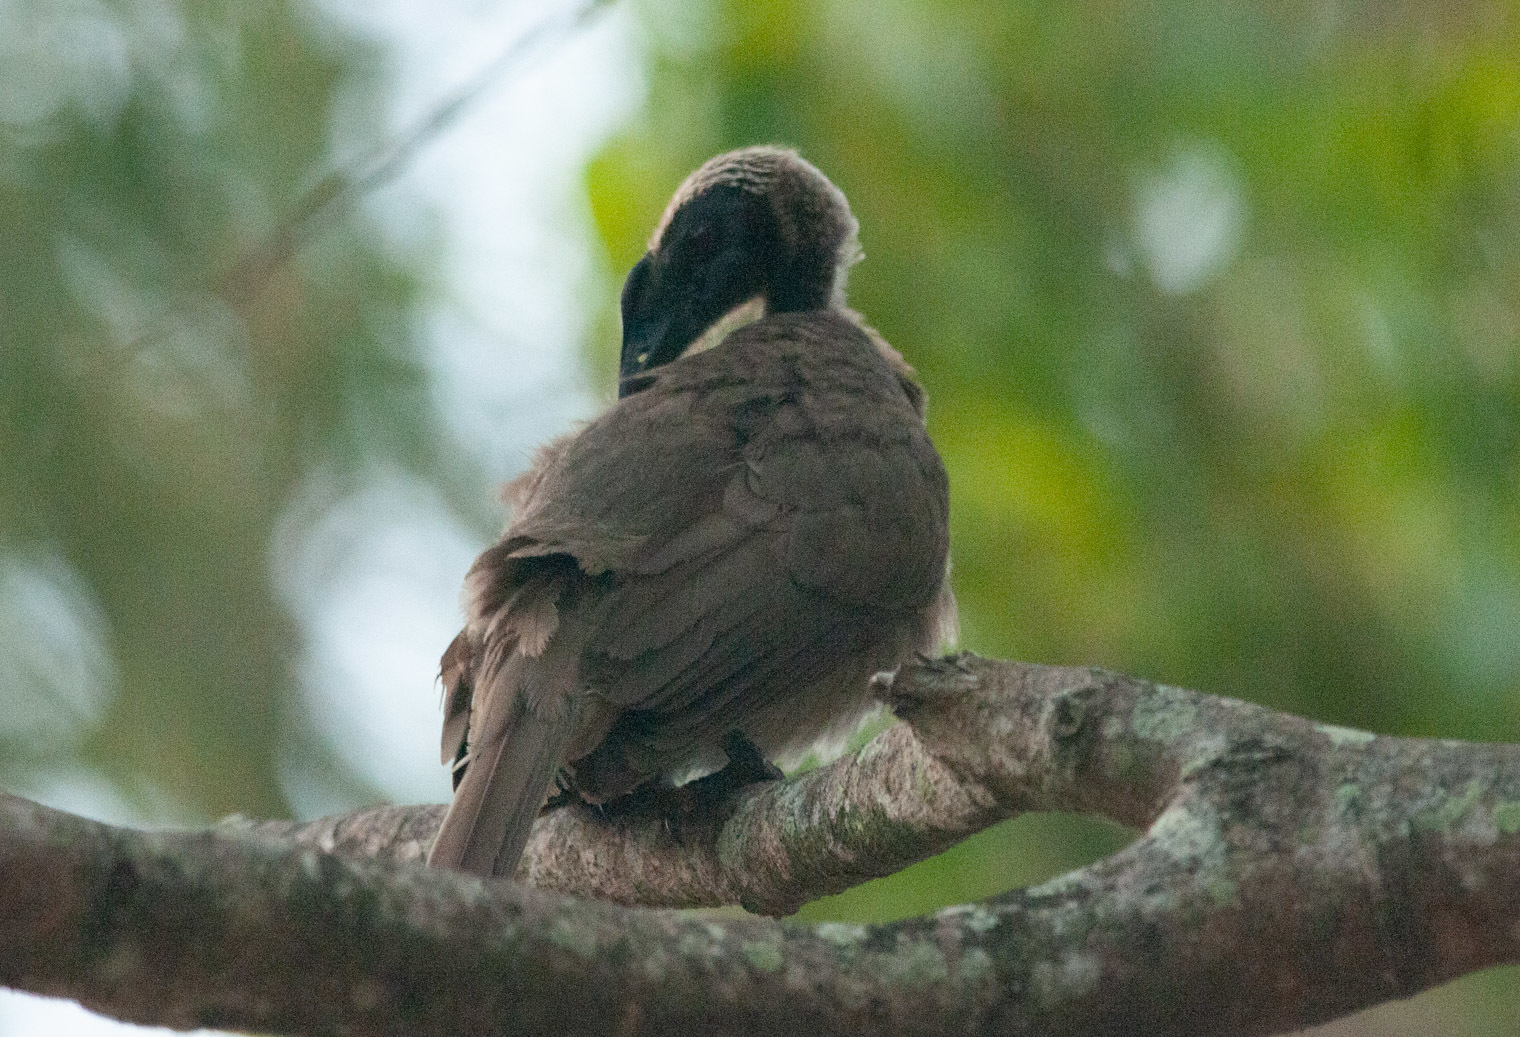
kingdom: Animalia
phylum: Chordata
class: Aves
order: Passeriformes
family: Meliphagidae
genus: Philemon
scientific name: Philemon buceroides
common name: Helmeted friarbird
